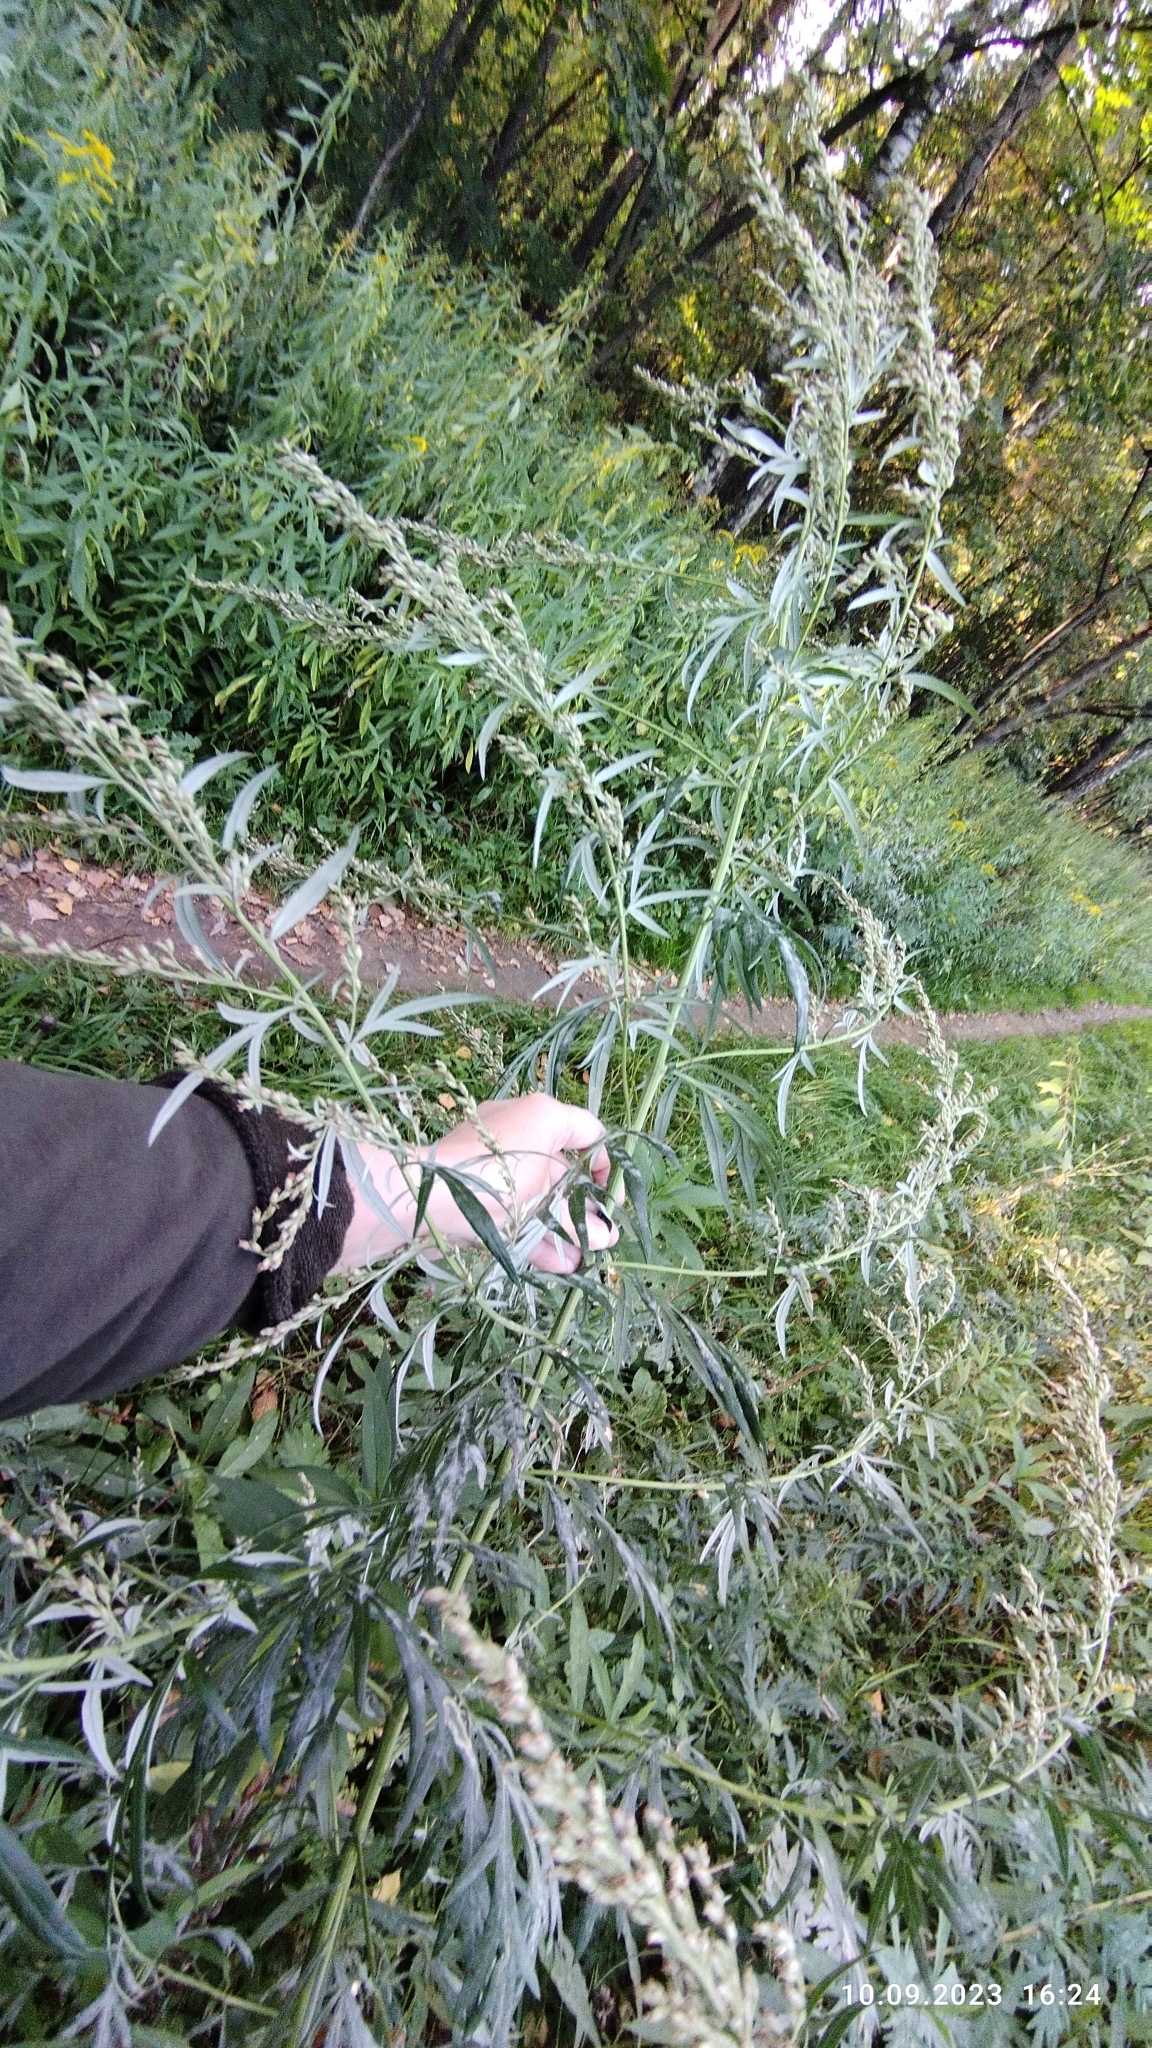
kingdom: Plantae
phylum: Tracheophyta
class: Magnoliopsida
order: Asterales
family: Asteraceae
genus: Artemisia
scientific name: Artemisia vulgaris
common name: Mugwort
